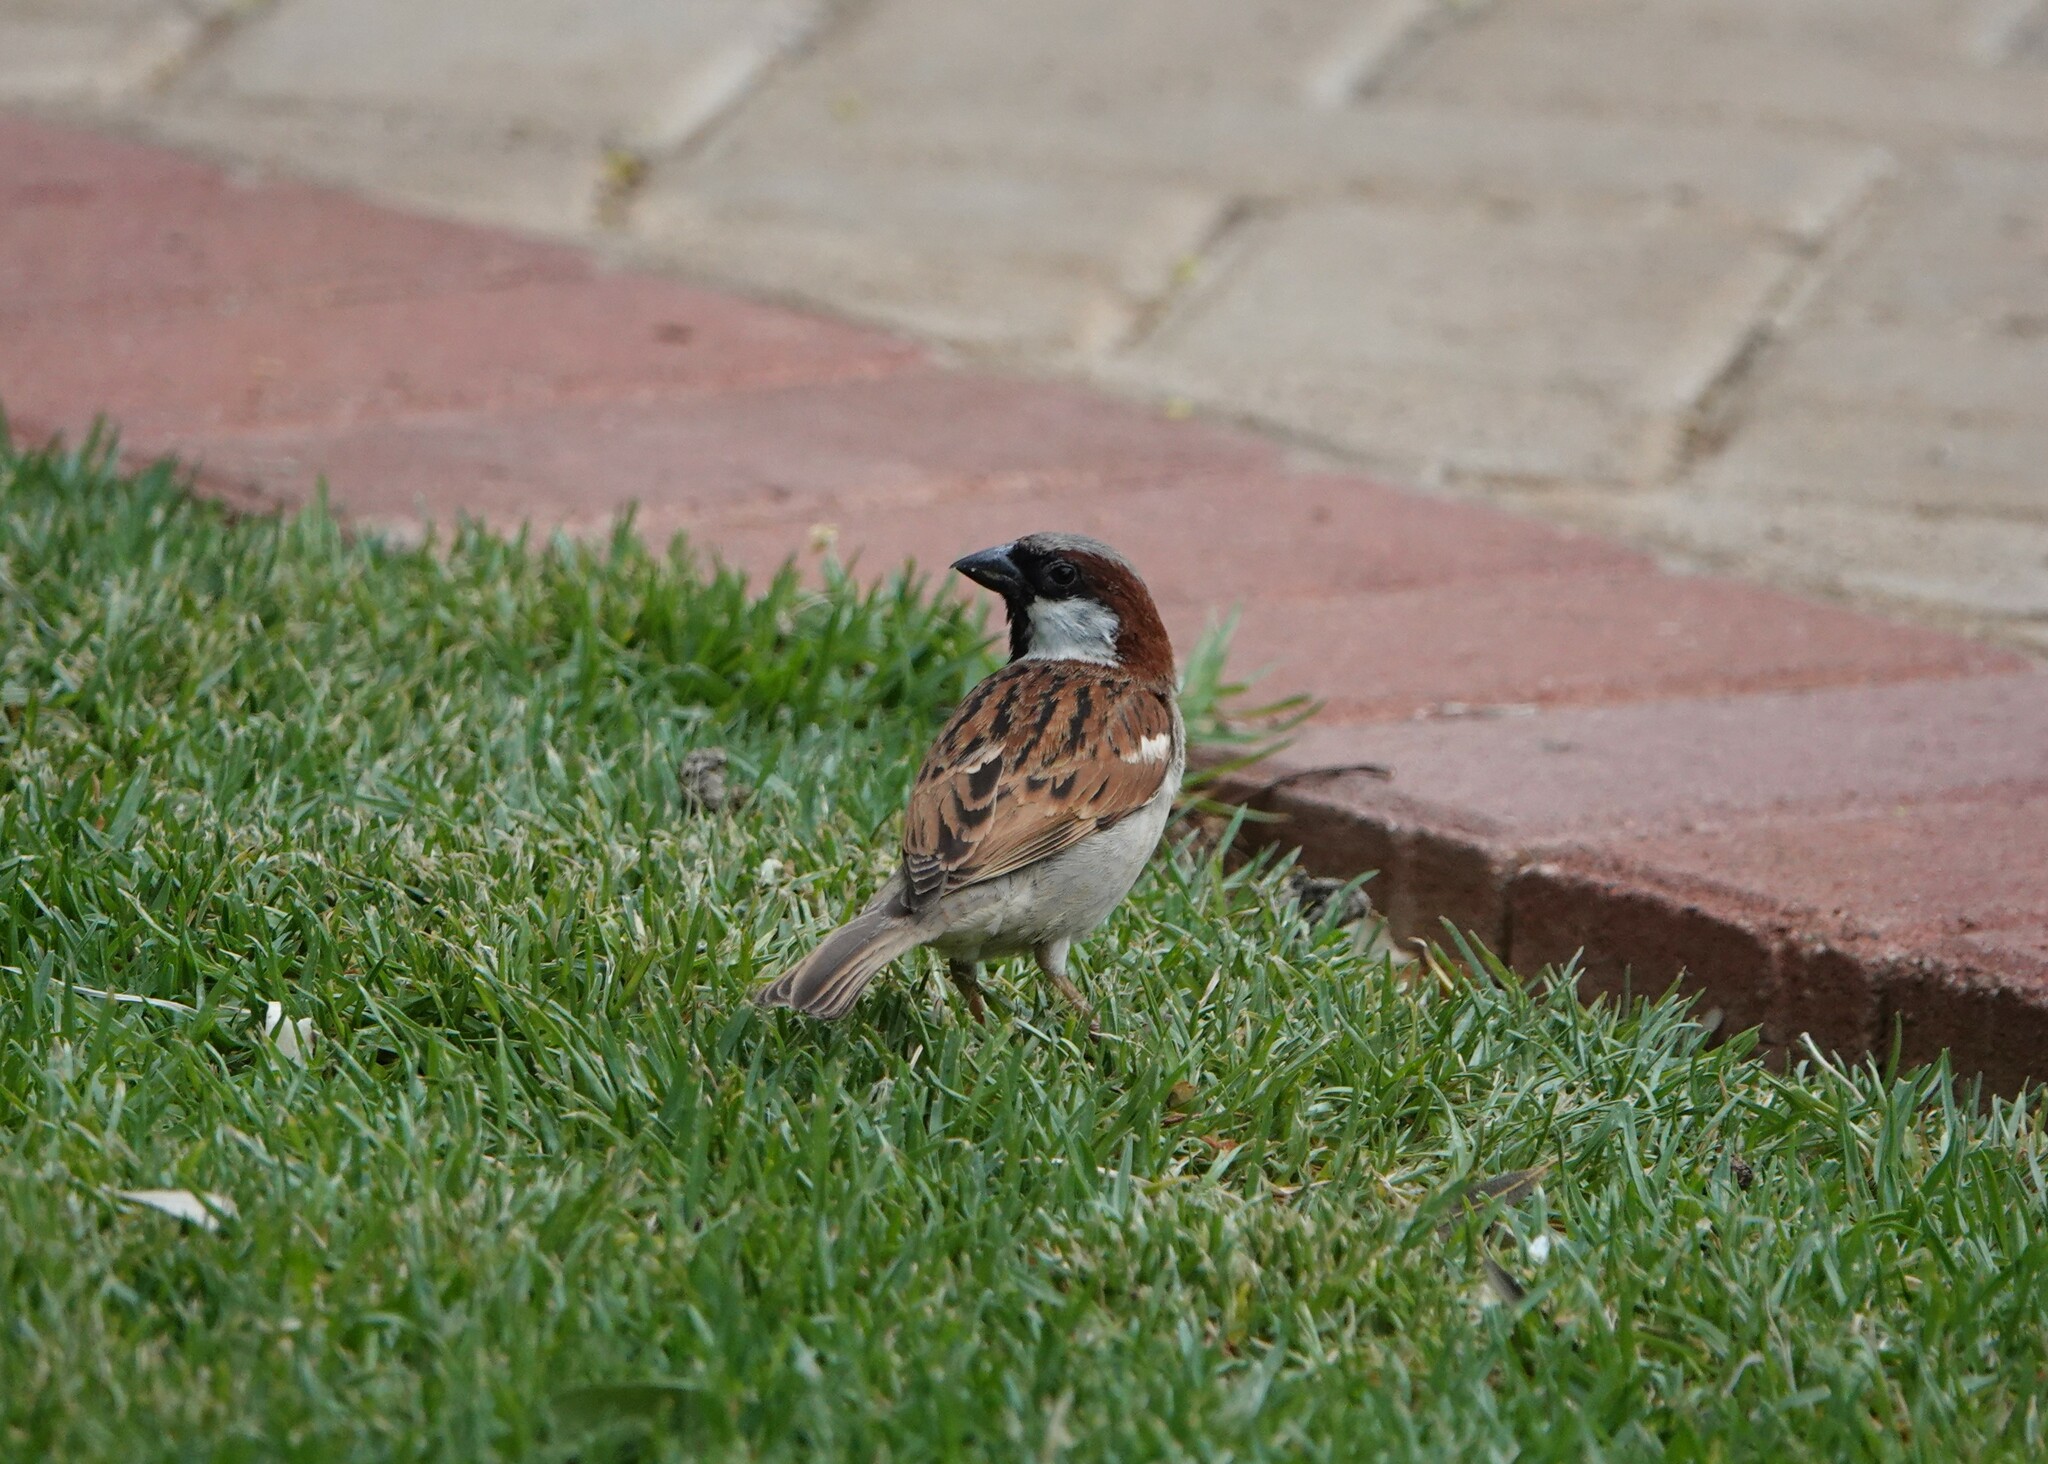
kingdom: Animalia
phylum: Chordata
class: Aves
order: Passeriformes
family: Passeridae
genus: Passer
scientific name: Passer domesticus
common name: House sparrow
